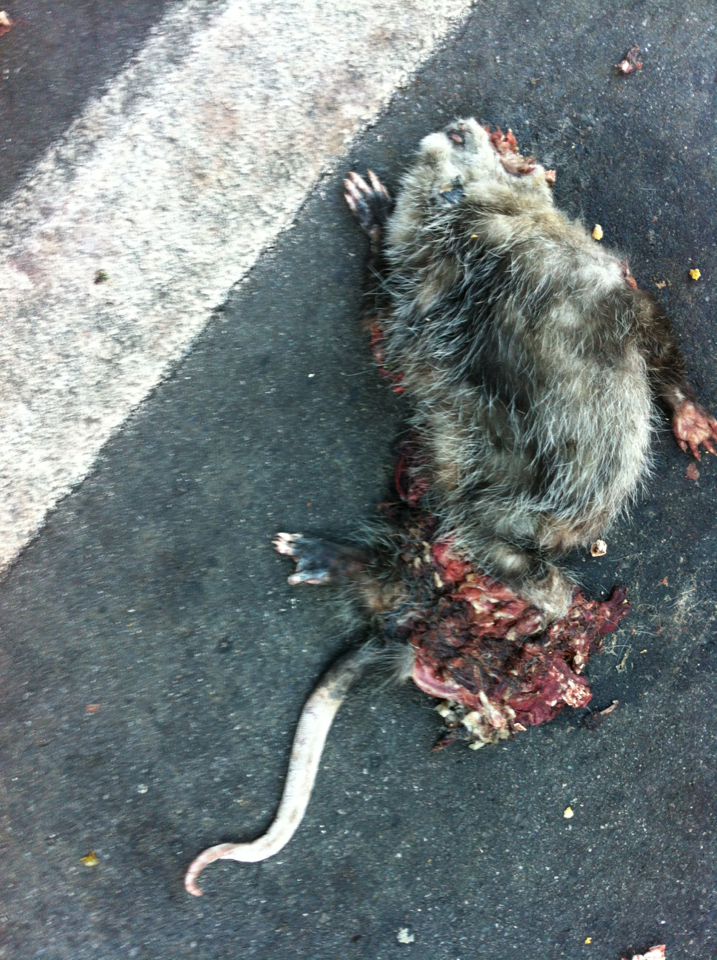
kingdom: Animalia
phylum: Chordata
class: Mammalia
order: Didelphimorphia
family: Didelphidae
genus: Didelphis
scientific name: Didelphis virginiana
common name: Virginia opossum
